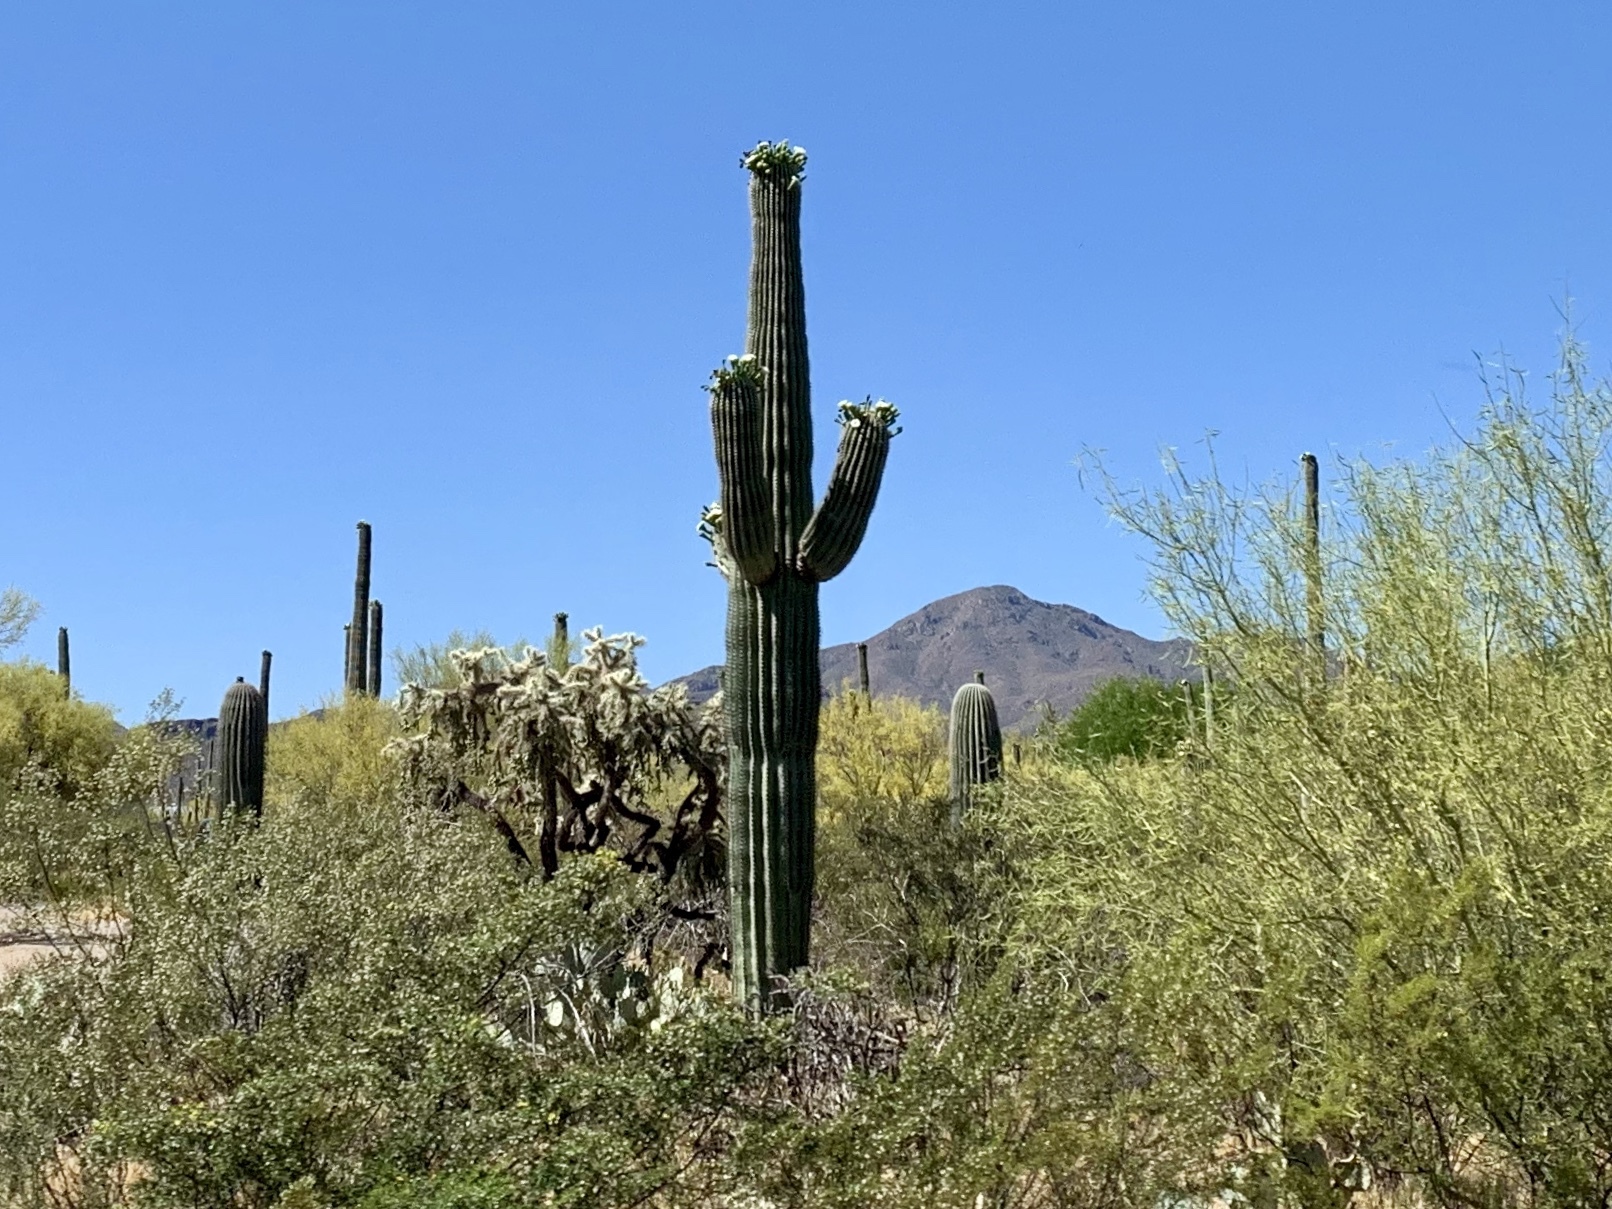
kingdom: Plantae
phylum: Tracheophyta
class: Magnoliopsida
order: Caryophyllales
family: Cactaceae
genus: Carnegiea
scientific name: Carnegiea gigantea
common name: Saguaro
